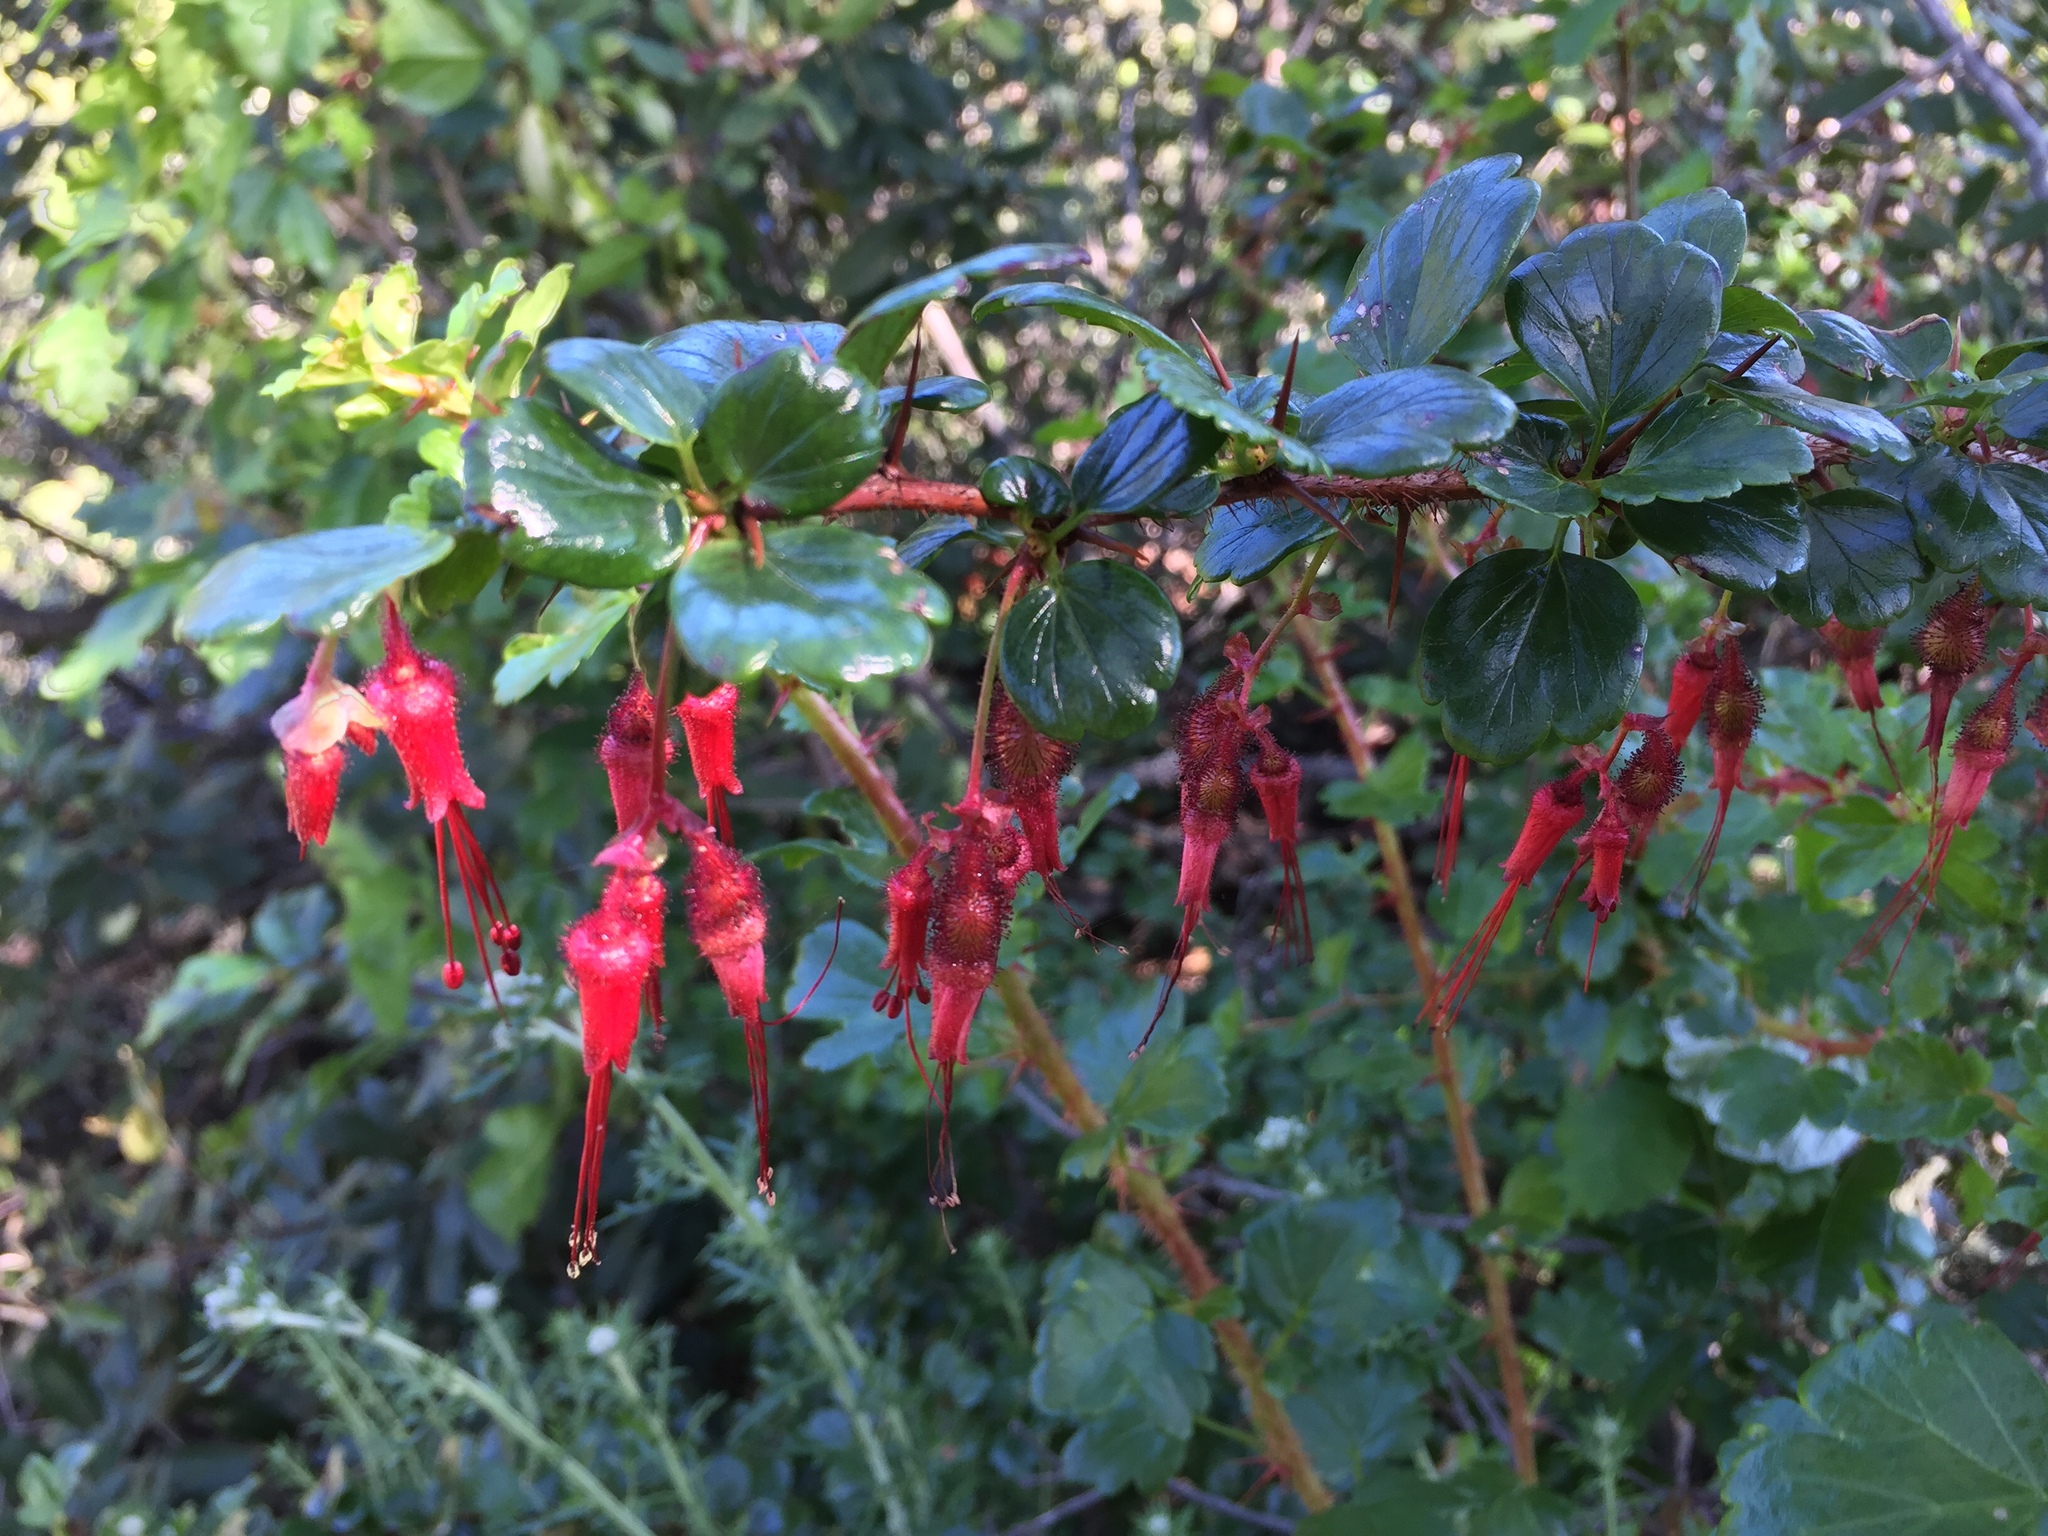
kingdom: Plantae
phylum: Tracheophyta
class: Magnoliopsida
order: Saxifragales
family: Grossulariaceae
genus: Ribes
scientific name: Ribes speciosum
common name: Fuchsia-flower gooseberry
